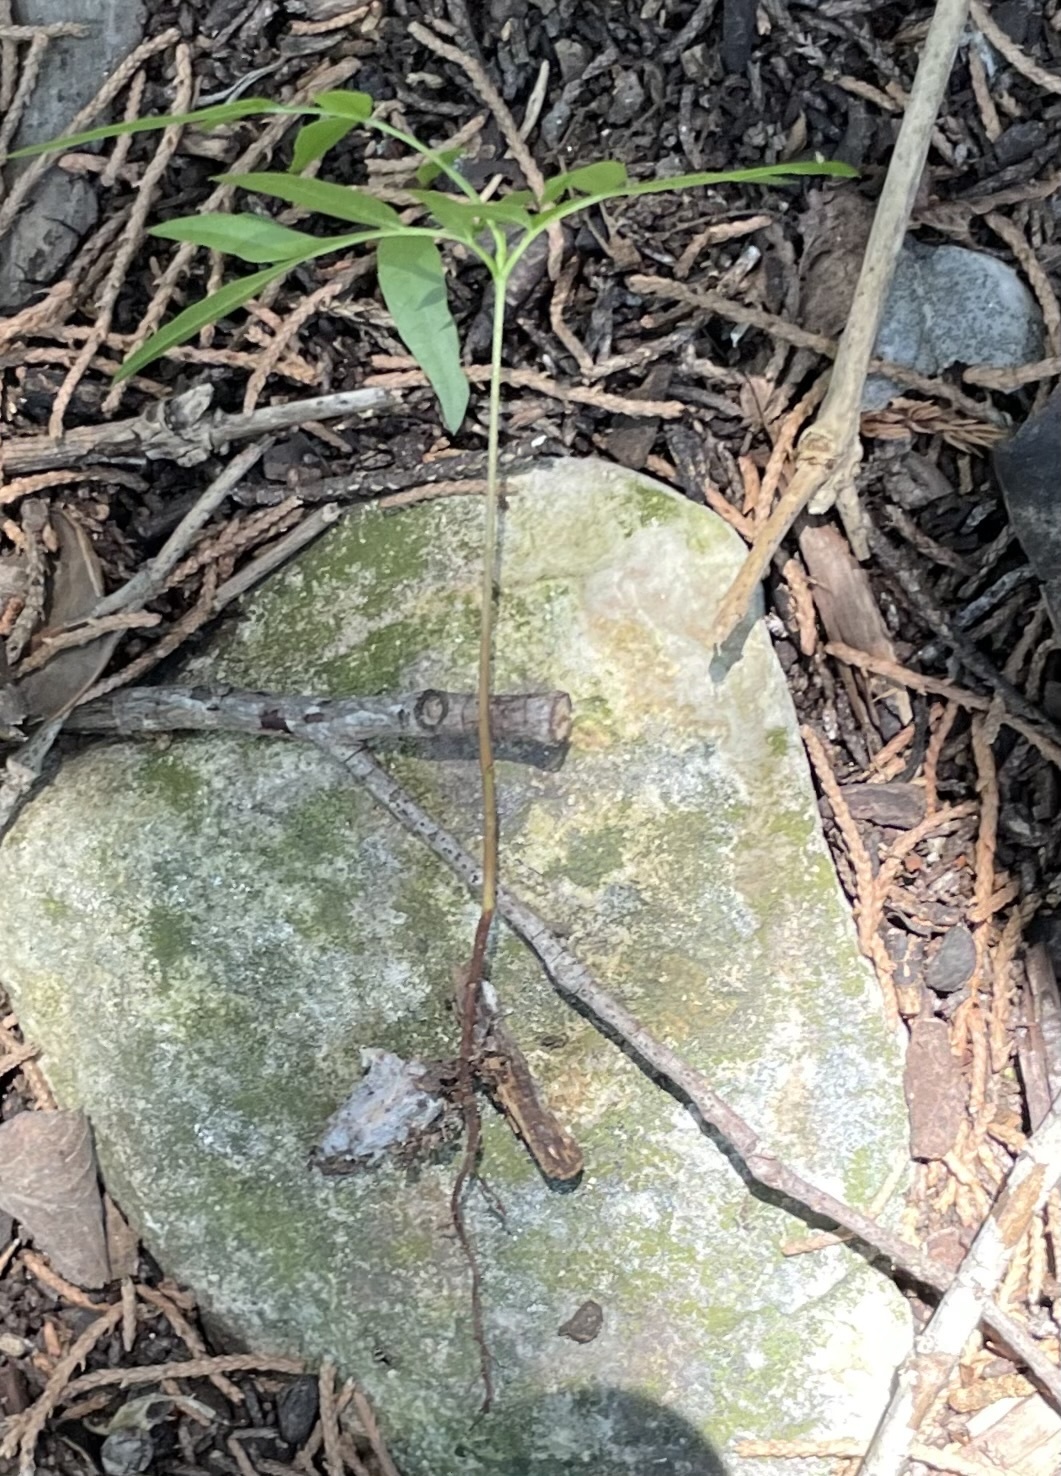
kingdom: Plantae
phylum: Tracheophyta
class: Magnoliopsida
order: Sapindales
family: Anacardiaceae
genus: Pistacia
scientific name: Pistacia chinensis
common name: Chinese pistache
